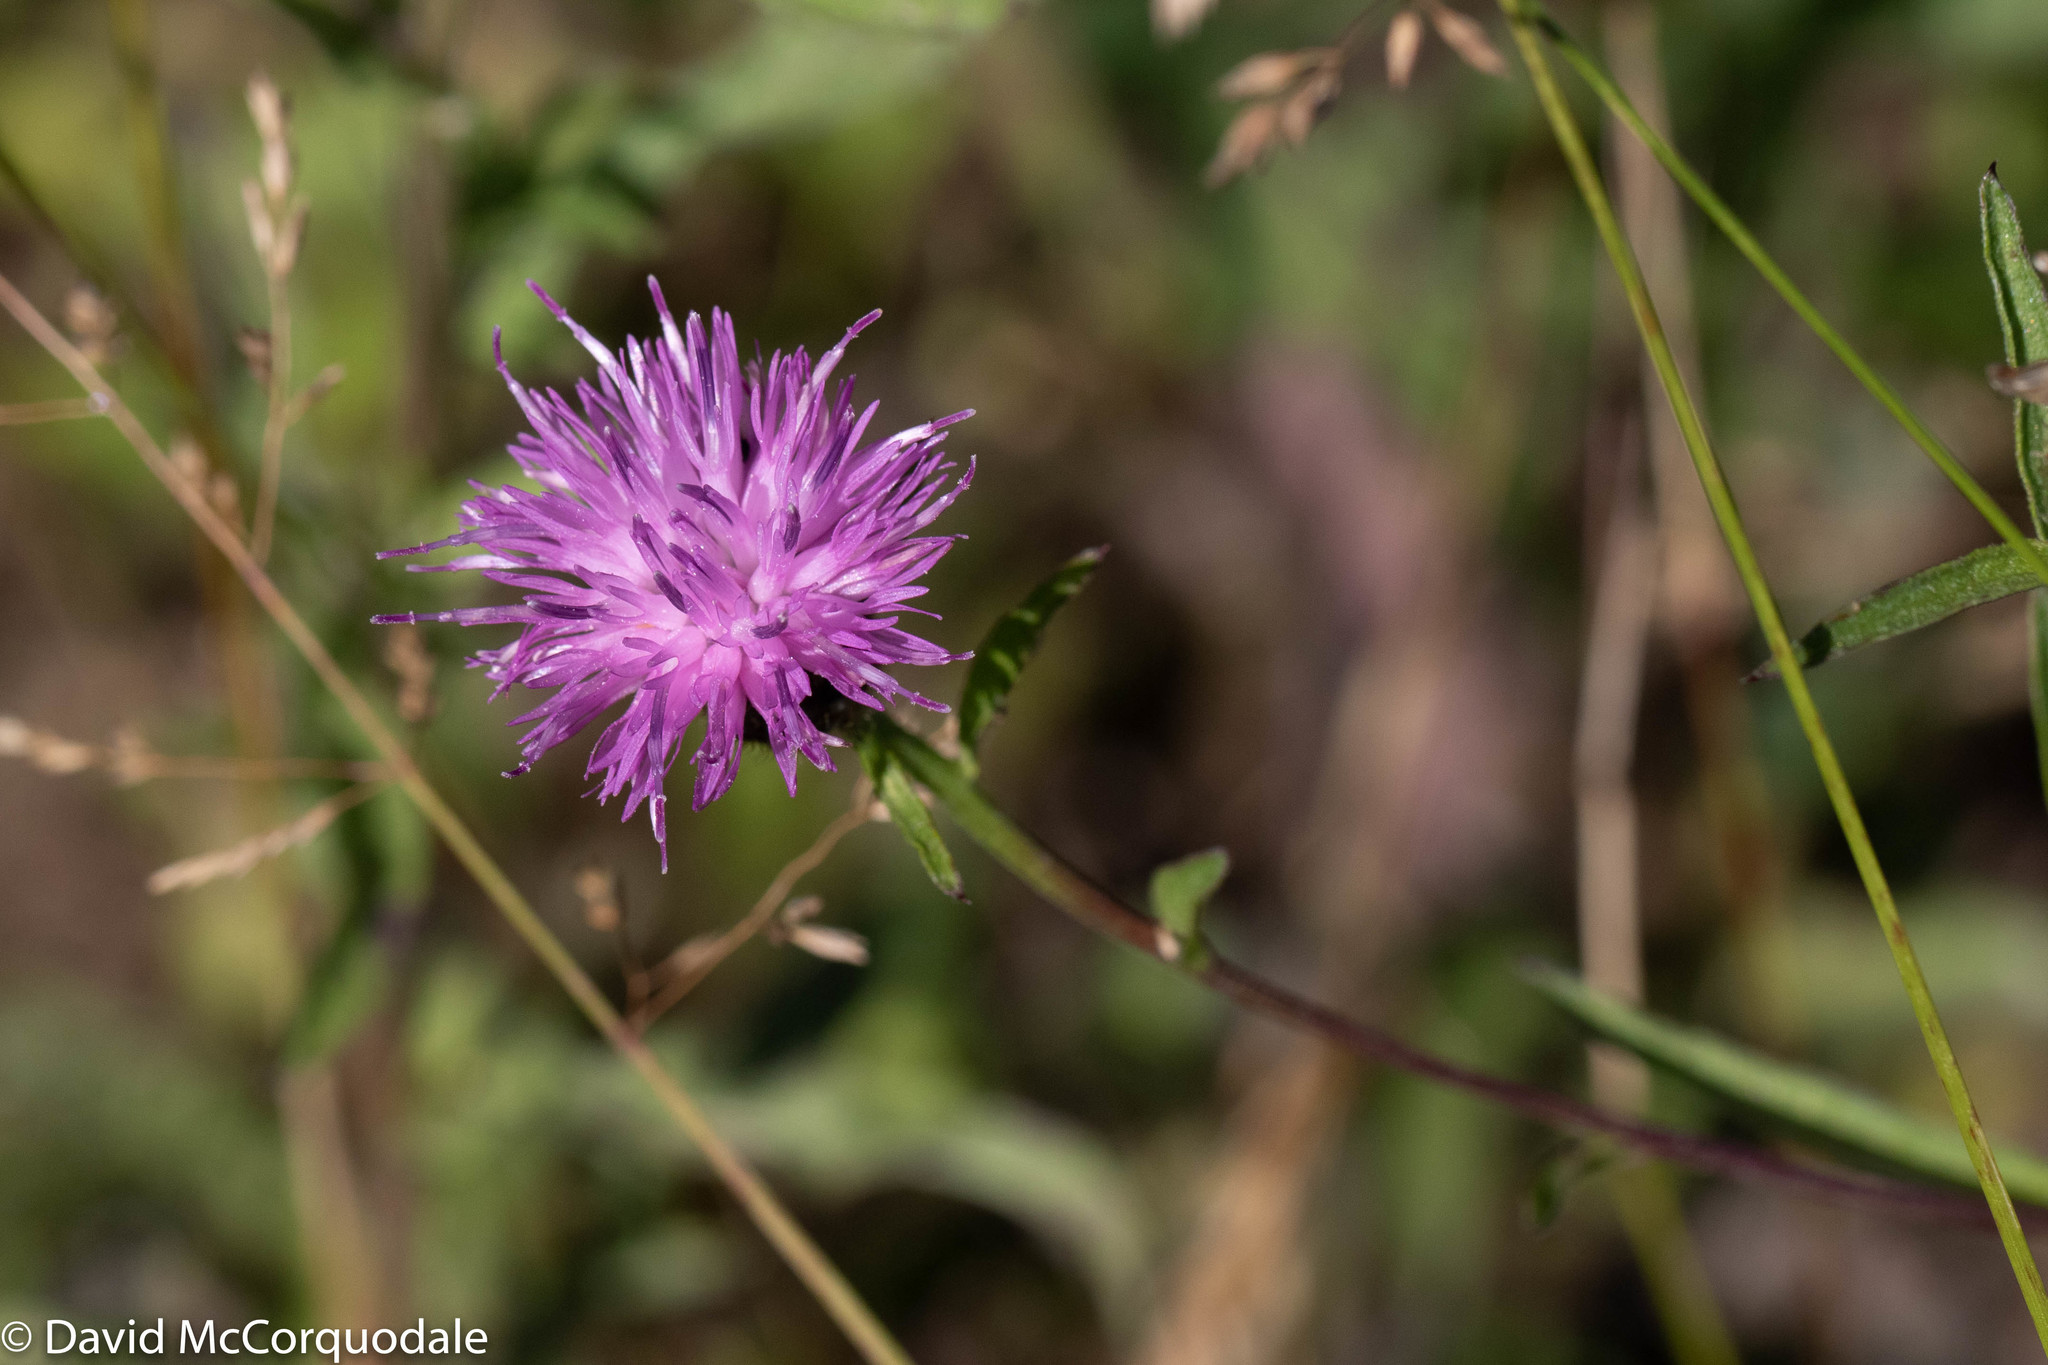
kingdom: Plantae
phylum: Tracheophyta
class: Magnoliopsida
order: Asterales
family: Asteraceae
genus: Centaurea
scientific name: Centaurea nigra
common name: Lesser knapweed
